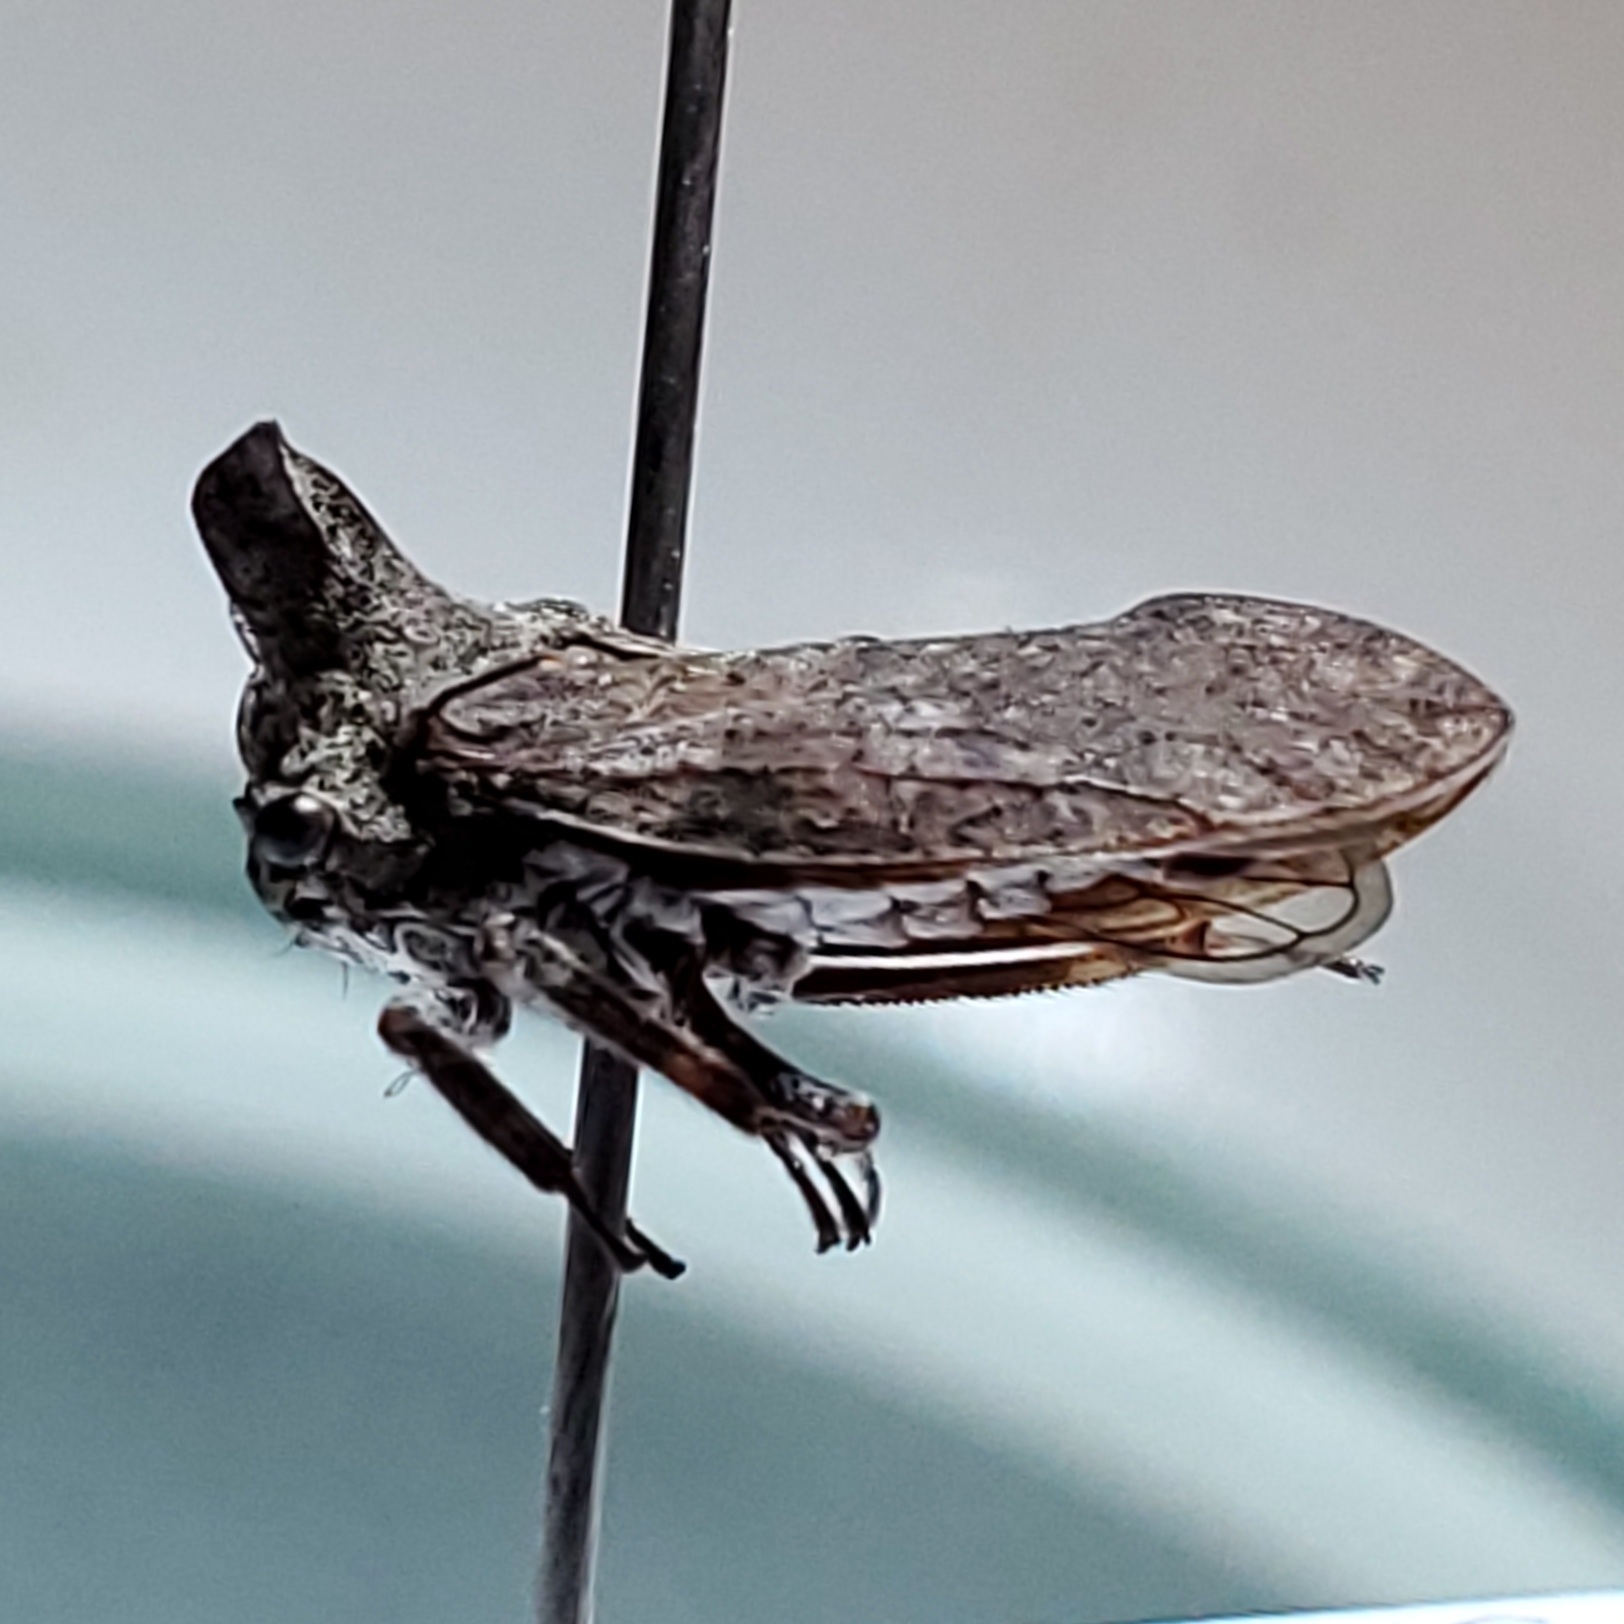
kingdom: Animalia
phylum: Arthropoda
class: Insecta
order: Hemiptera
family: Membracidae
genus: Microcentrus
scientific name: Microcentrus perdita
